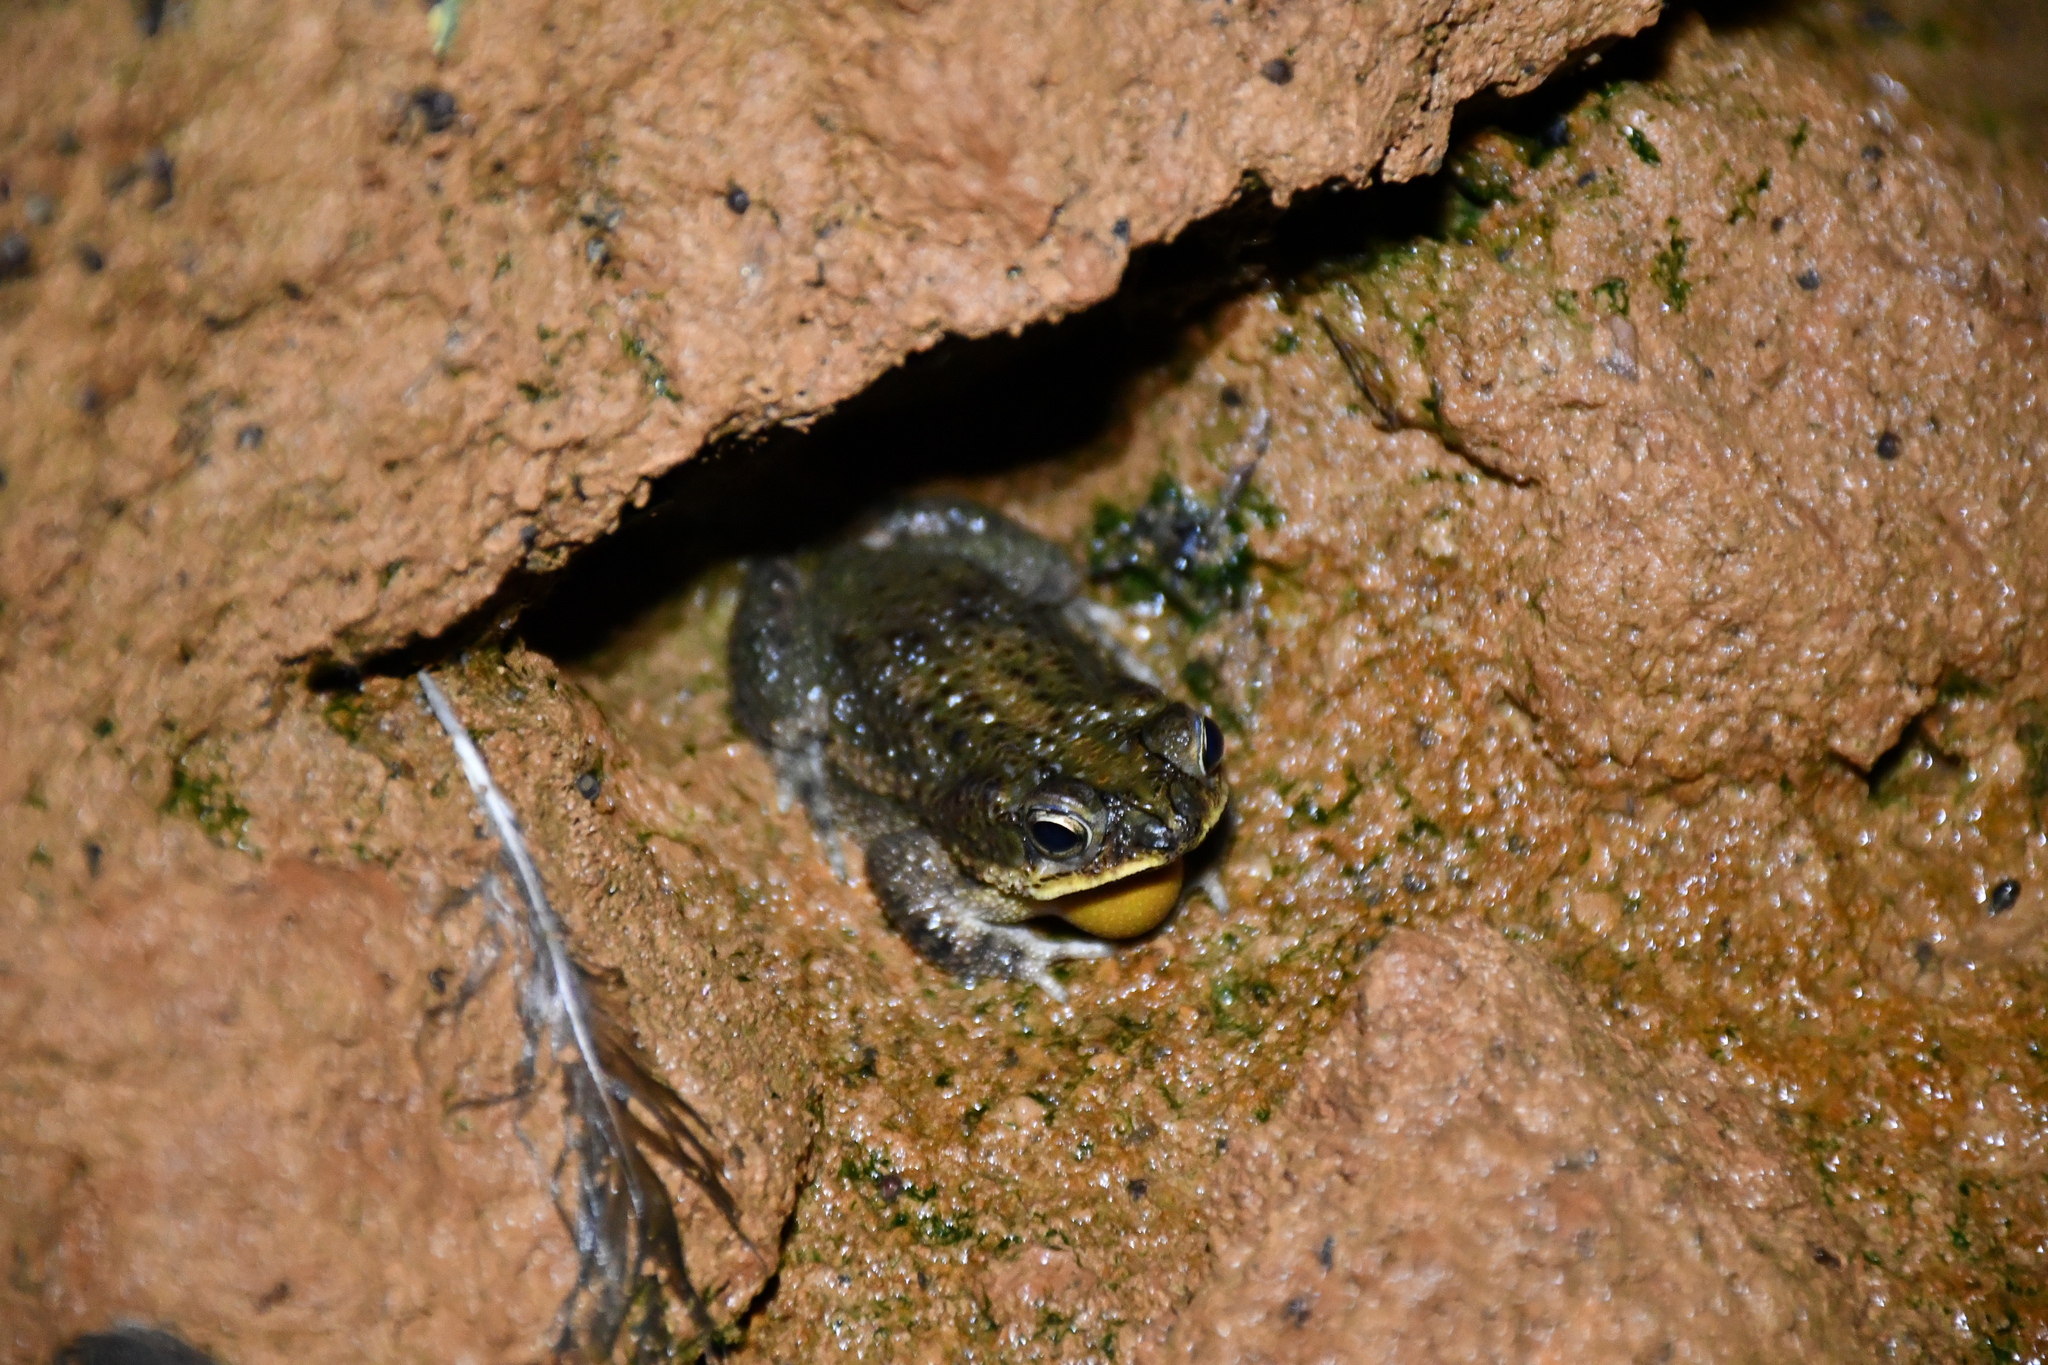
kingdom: Animalia
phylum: Chordata
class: Amphibia
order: Anura
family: Bufonidae
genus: Rhinella
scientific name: Rhinella major
